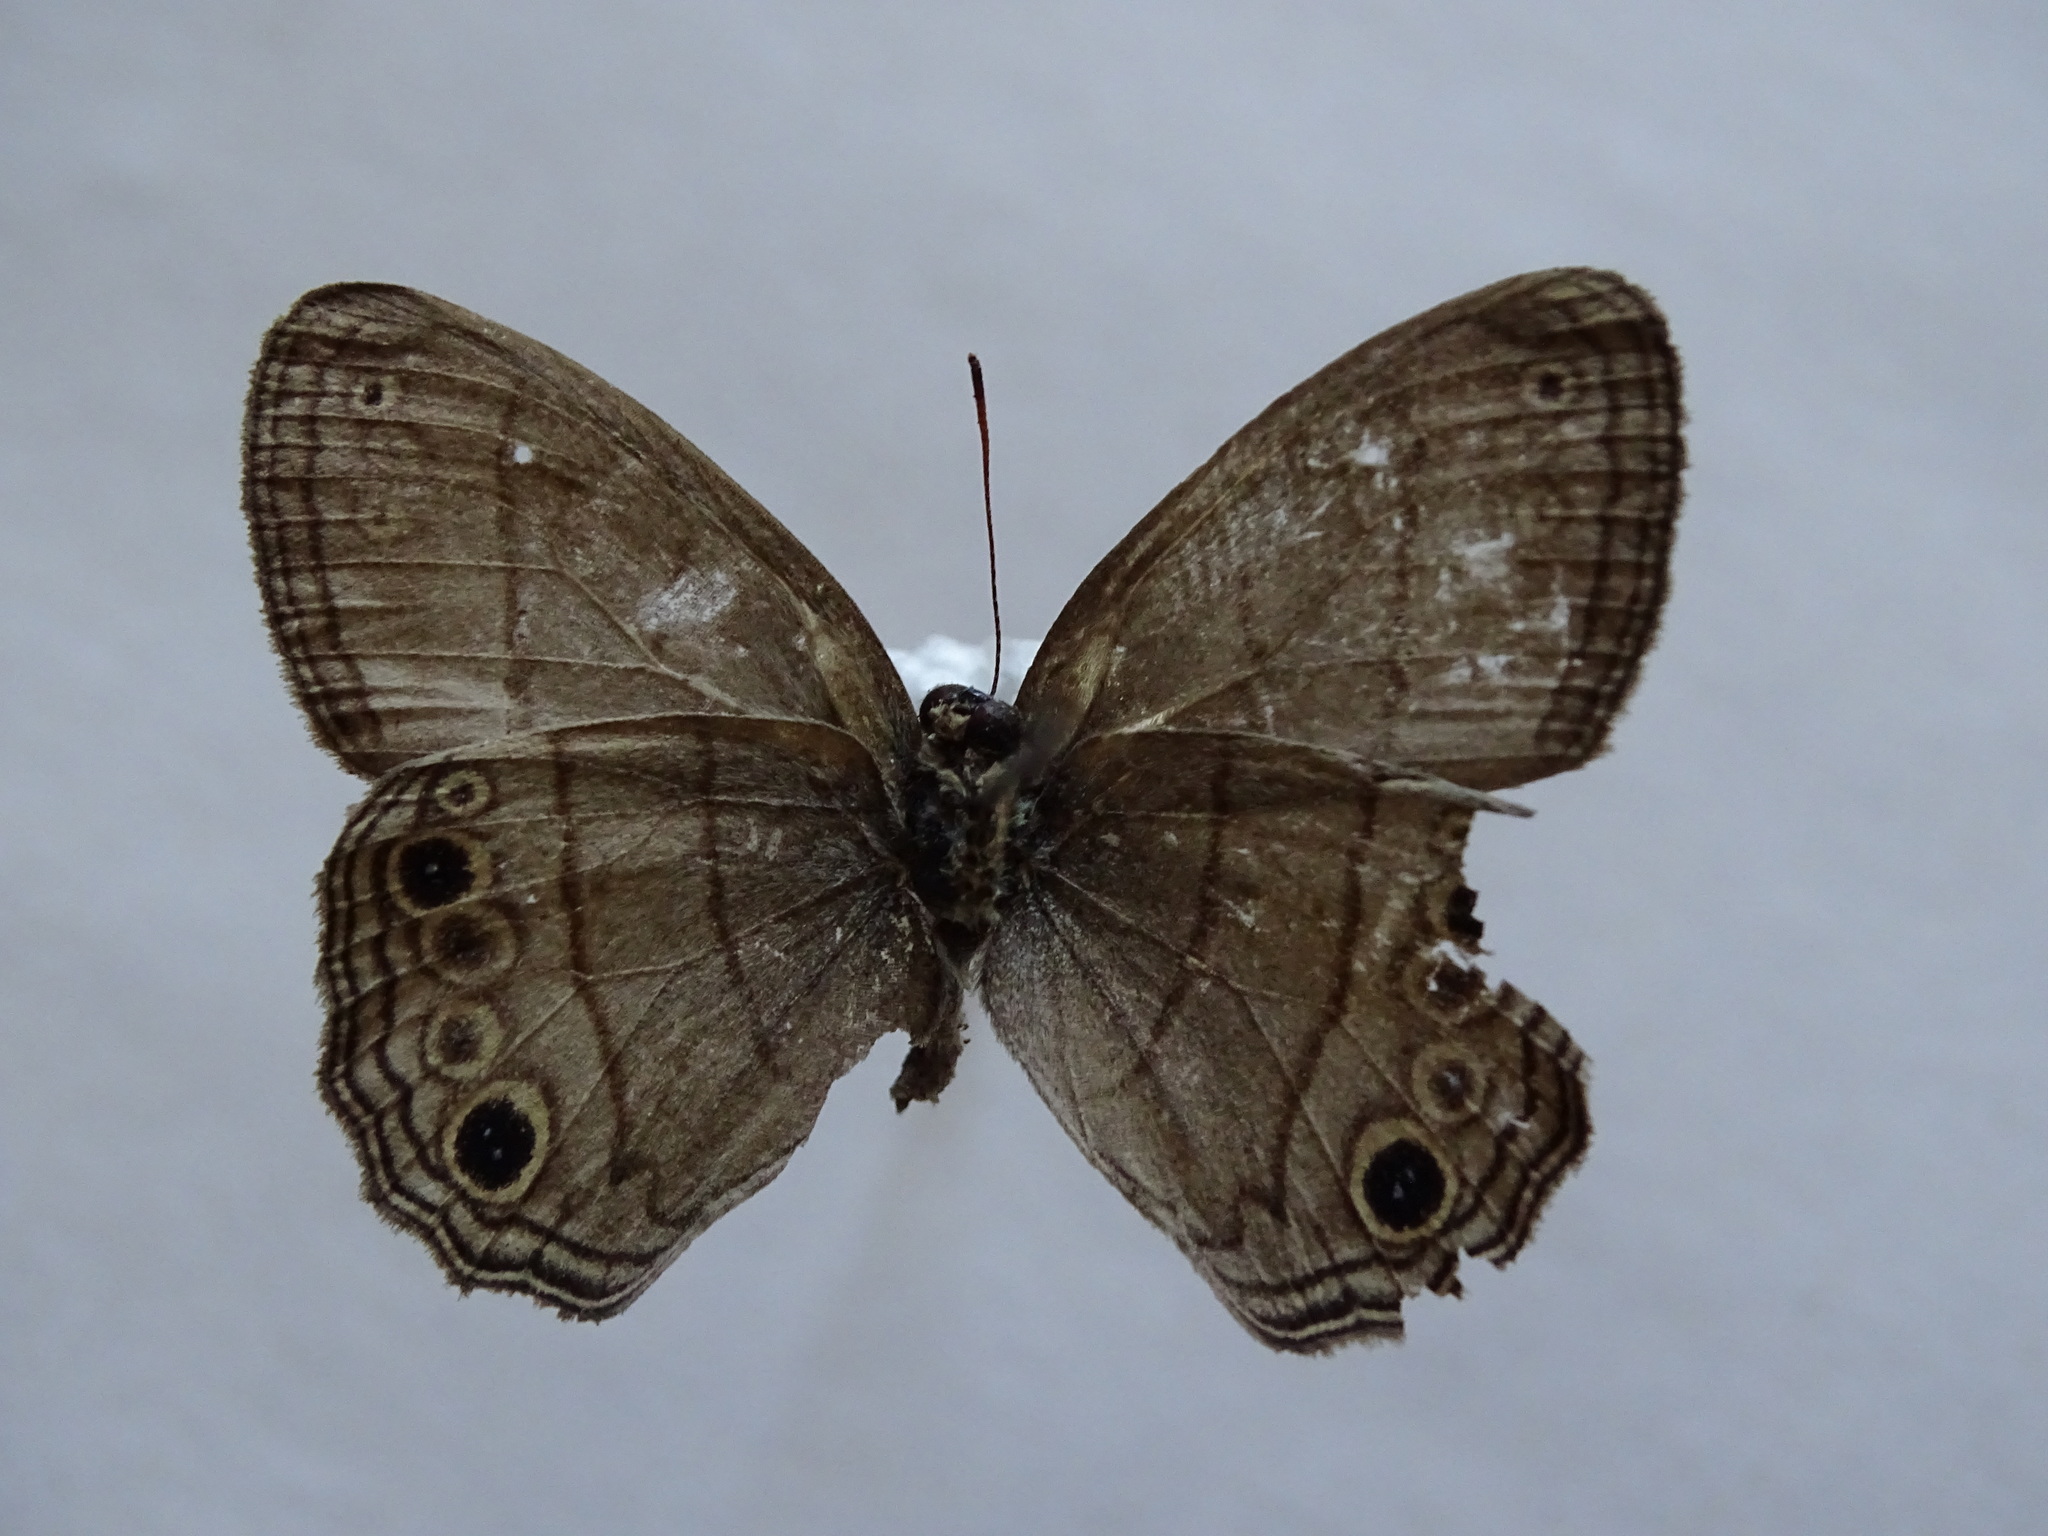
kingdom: Animalia
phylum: Arthropoda
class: Insecta
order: Lepidoptera
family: Nymphalidae
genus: Vareuptychia
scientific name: Vareuptychia similis
